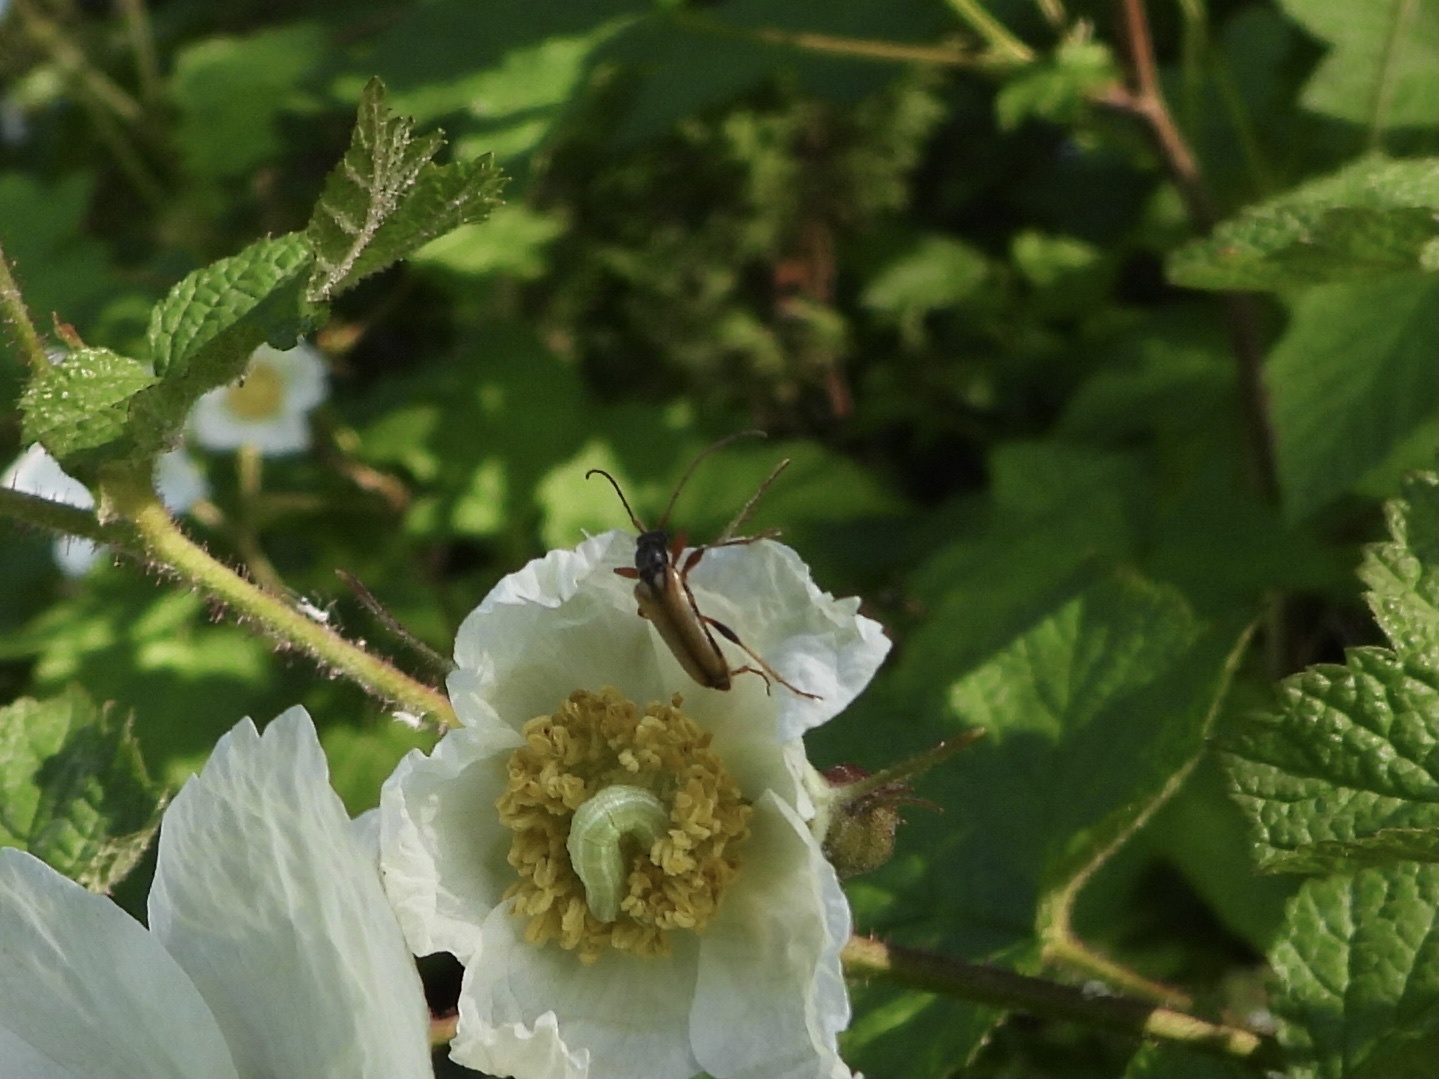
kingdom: Animalia
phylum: Arthropoda
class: Insecta
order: Coleoptera
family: Cerambycidae
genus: Pidonia
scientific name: Pidonia scripta
